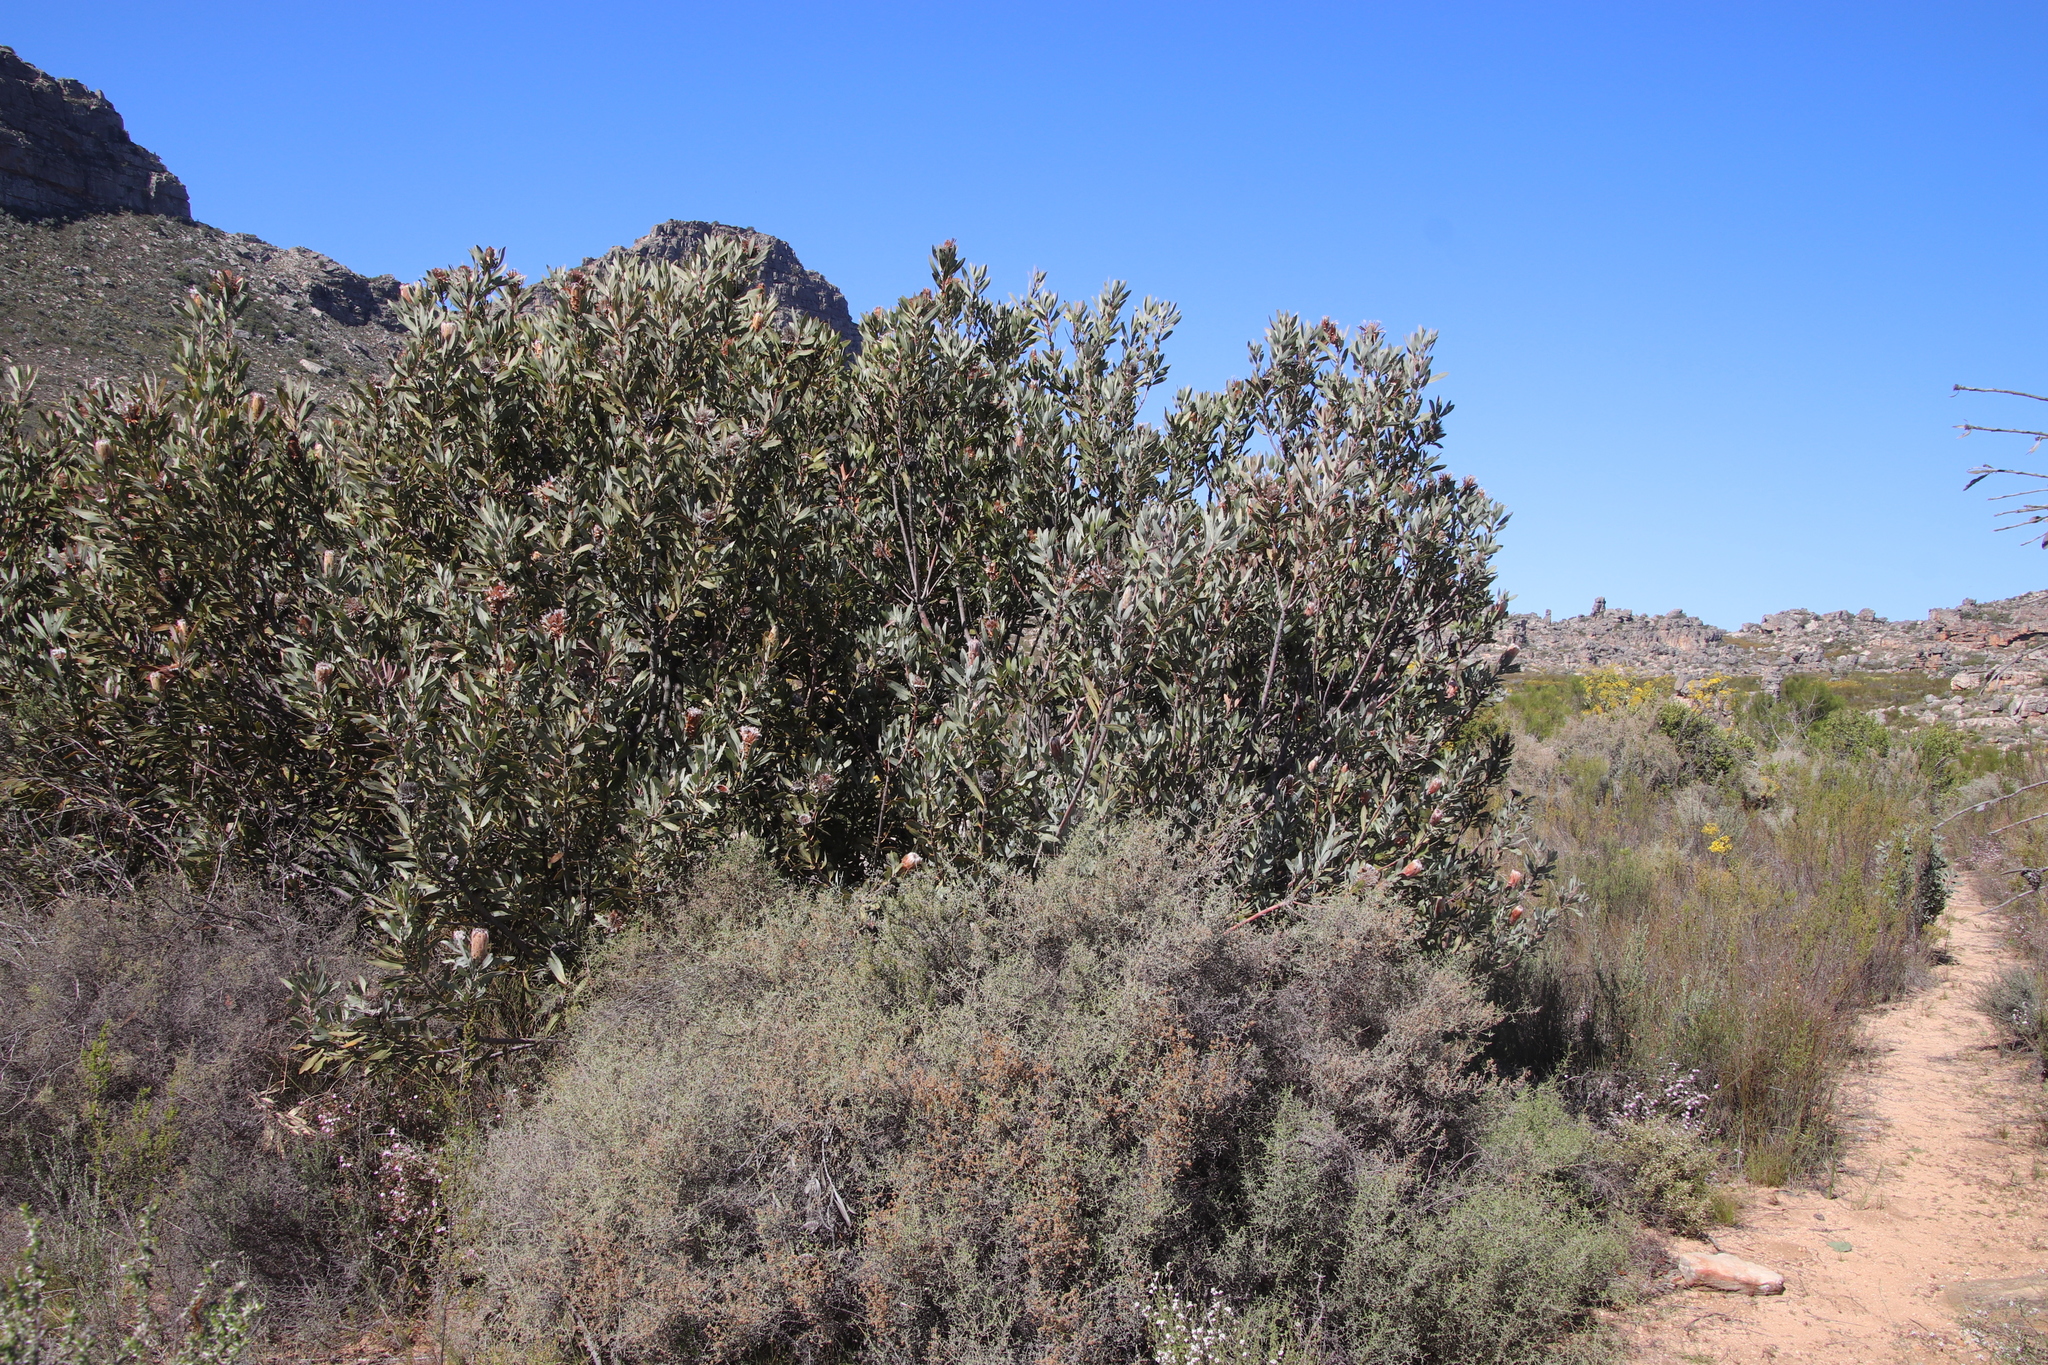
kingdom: Plantae
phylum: Tracheophyta
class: Magnoliopsida
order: Proteales
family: Proteaceae
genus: Protea
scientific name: Protea laurifolia
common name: Grey-leaf sugarbsh
